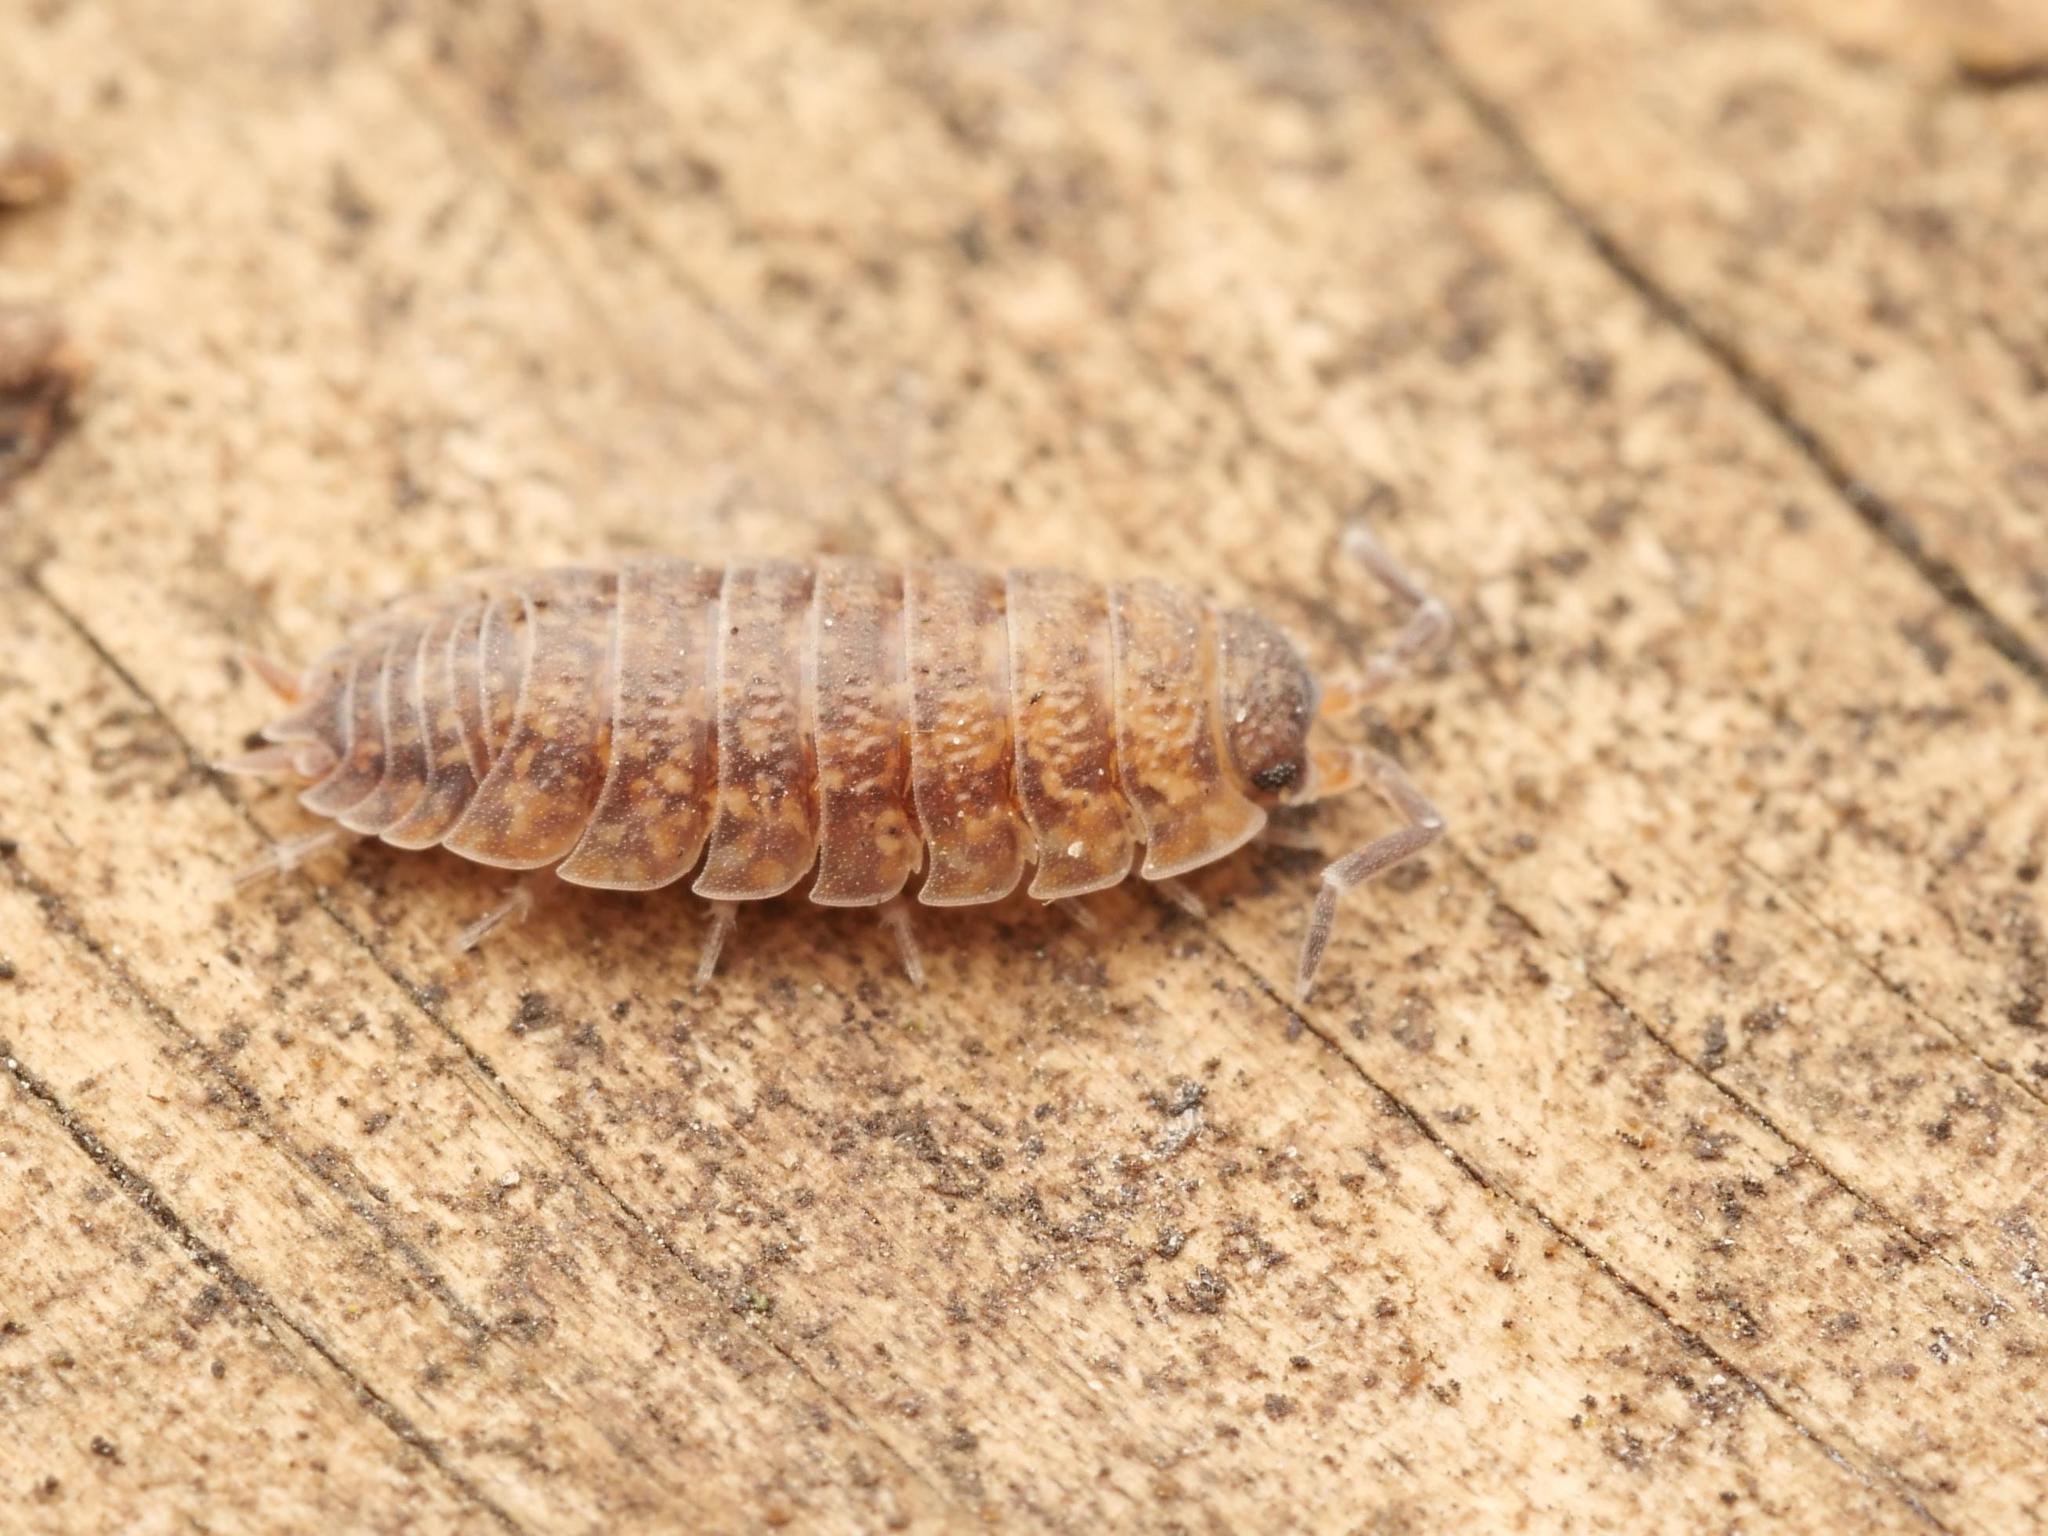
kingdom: Animalia
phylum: Arthropoda
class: Malacostraca
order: Isopoda
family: Porcellionidae
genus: Porcellio
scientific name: Porcellio scaber
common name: Common rough woodlouse
